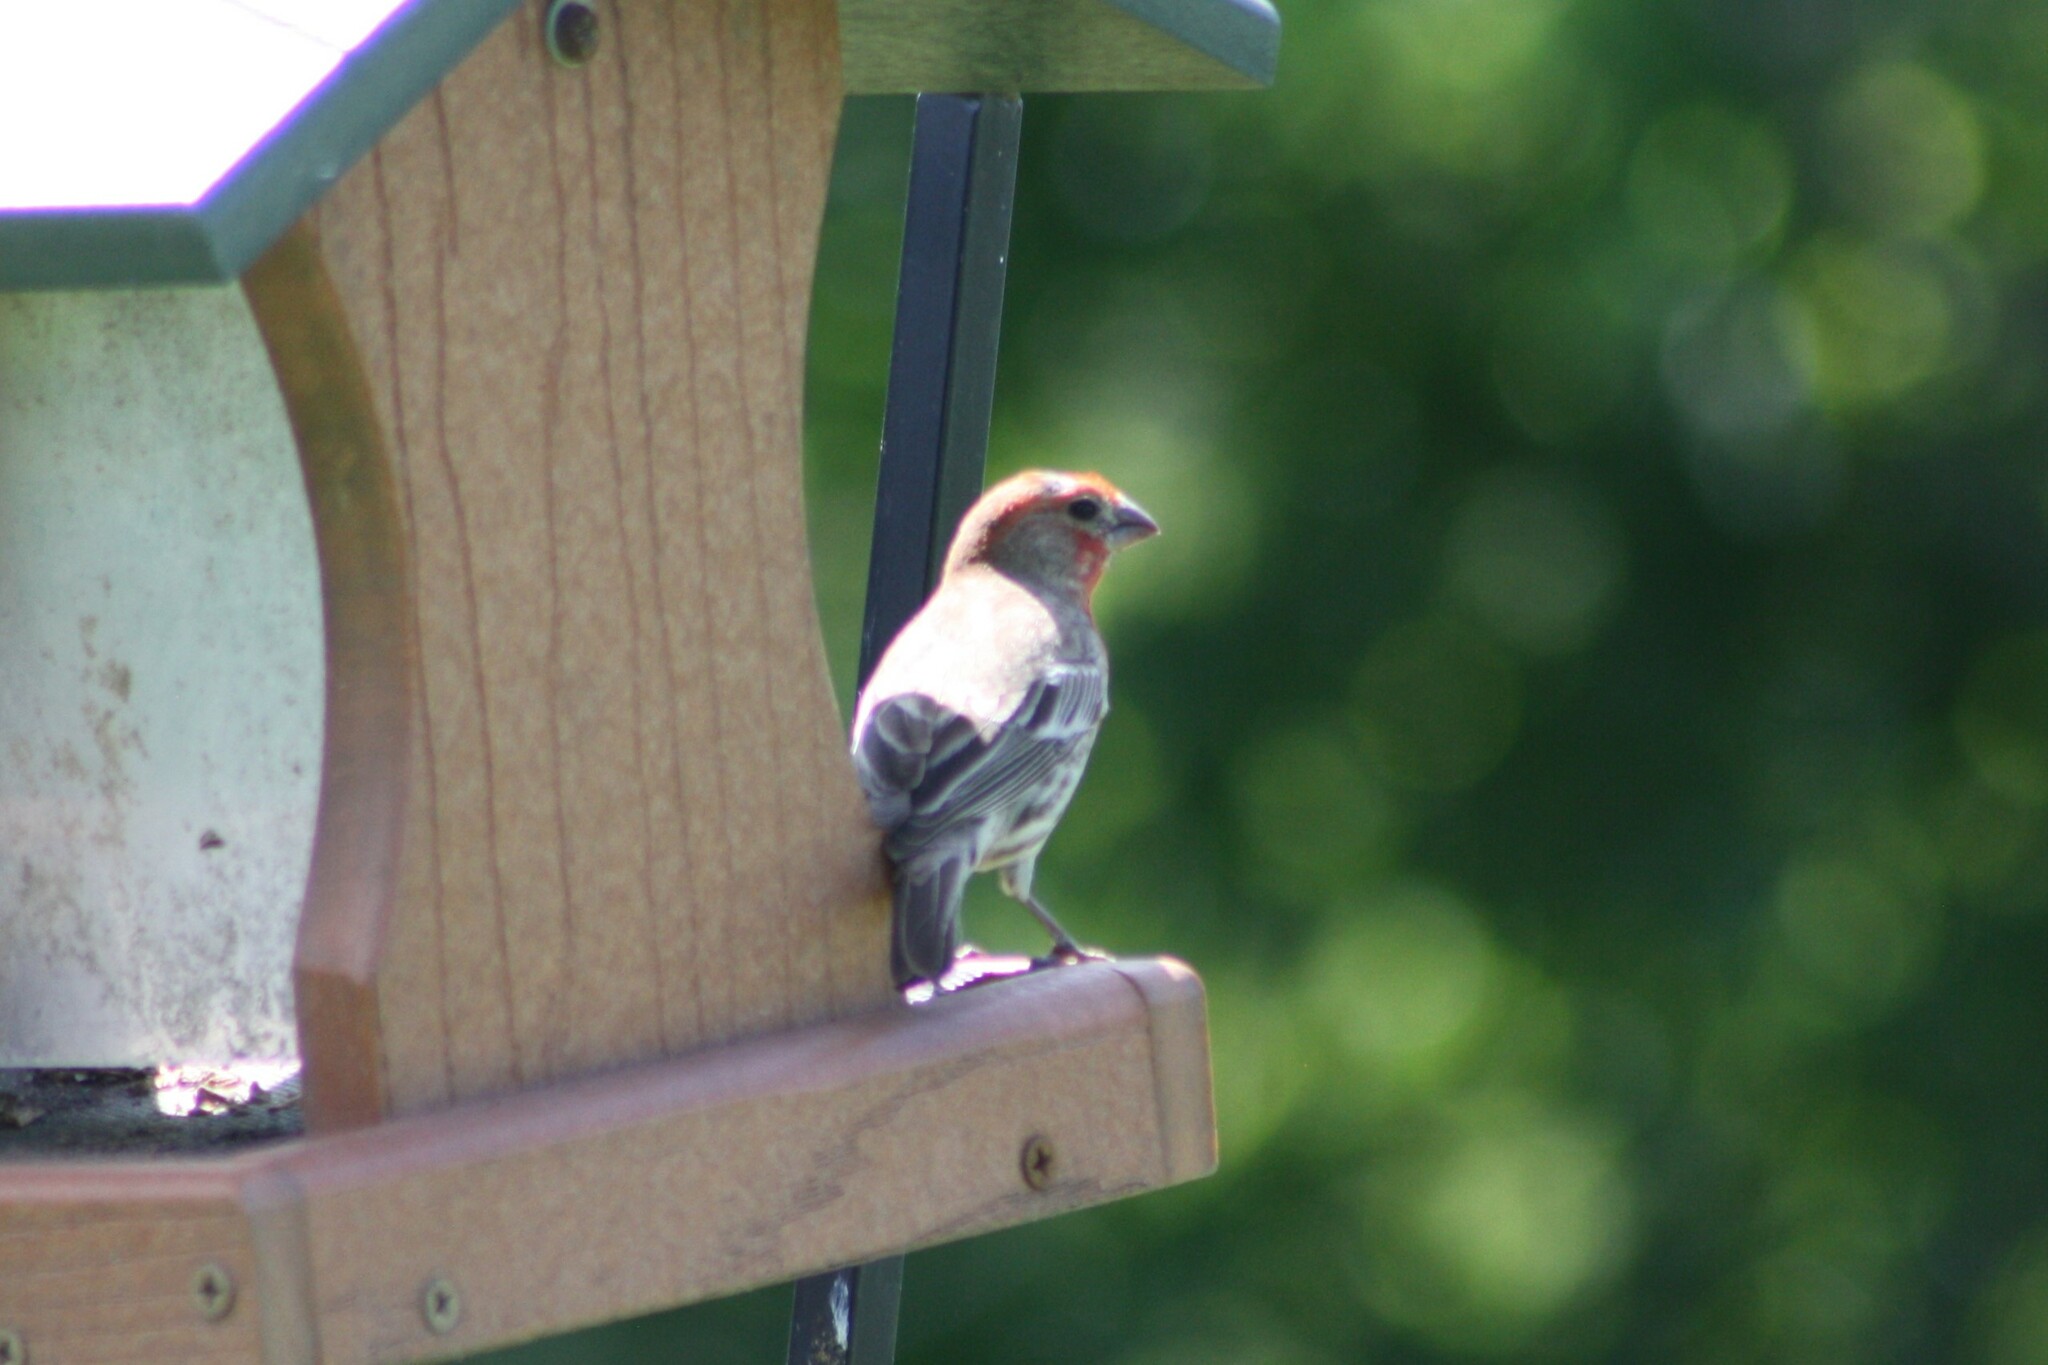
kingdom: Animalia
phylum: Chordata
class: Aves
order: Passeriformes
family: Fringillidae
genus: Haemorhous
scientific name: Haemorhous mexicanus
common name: House finch
